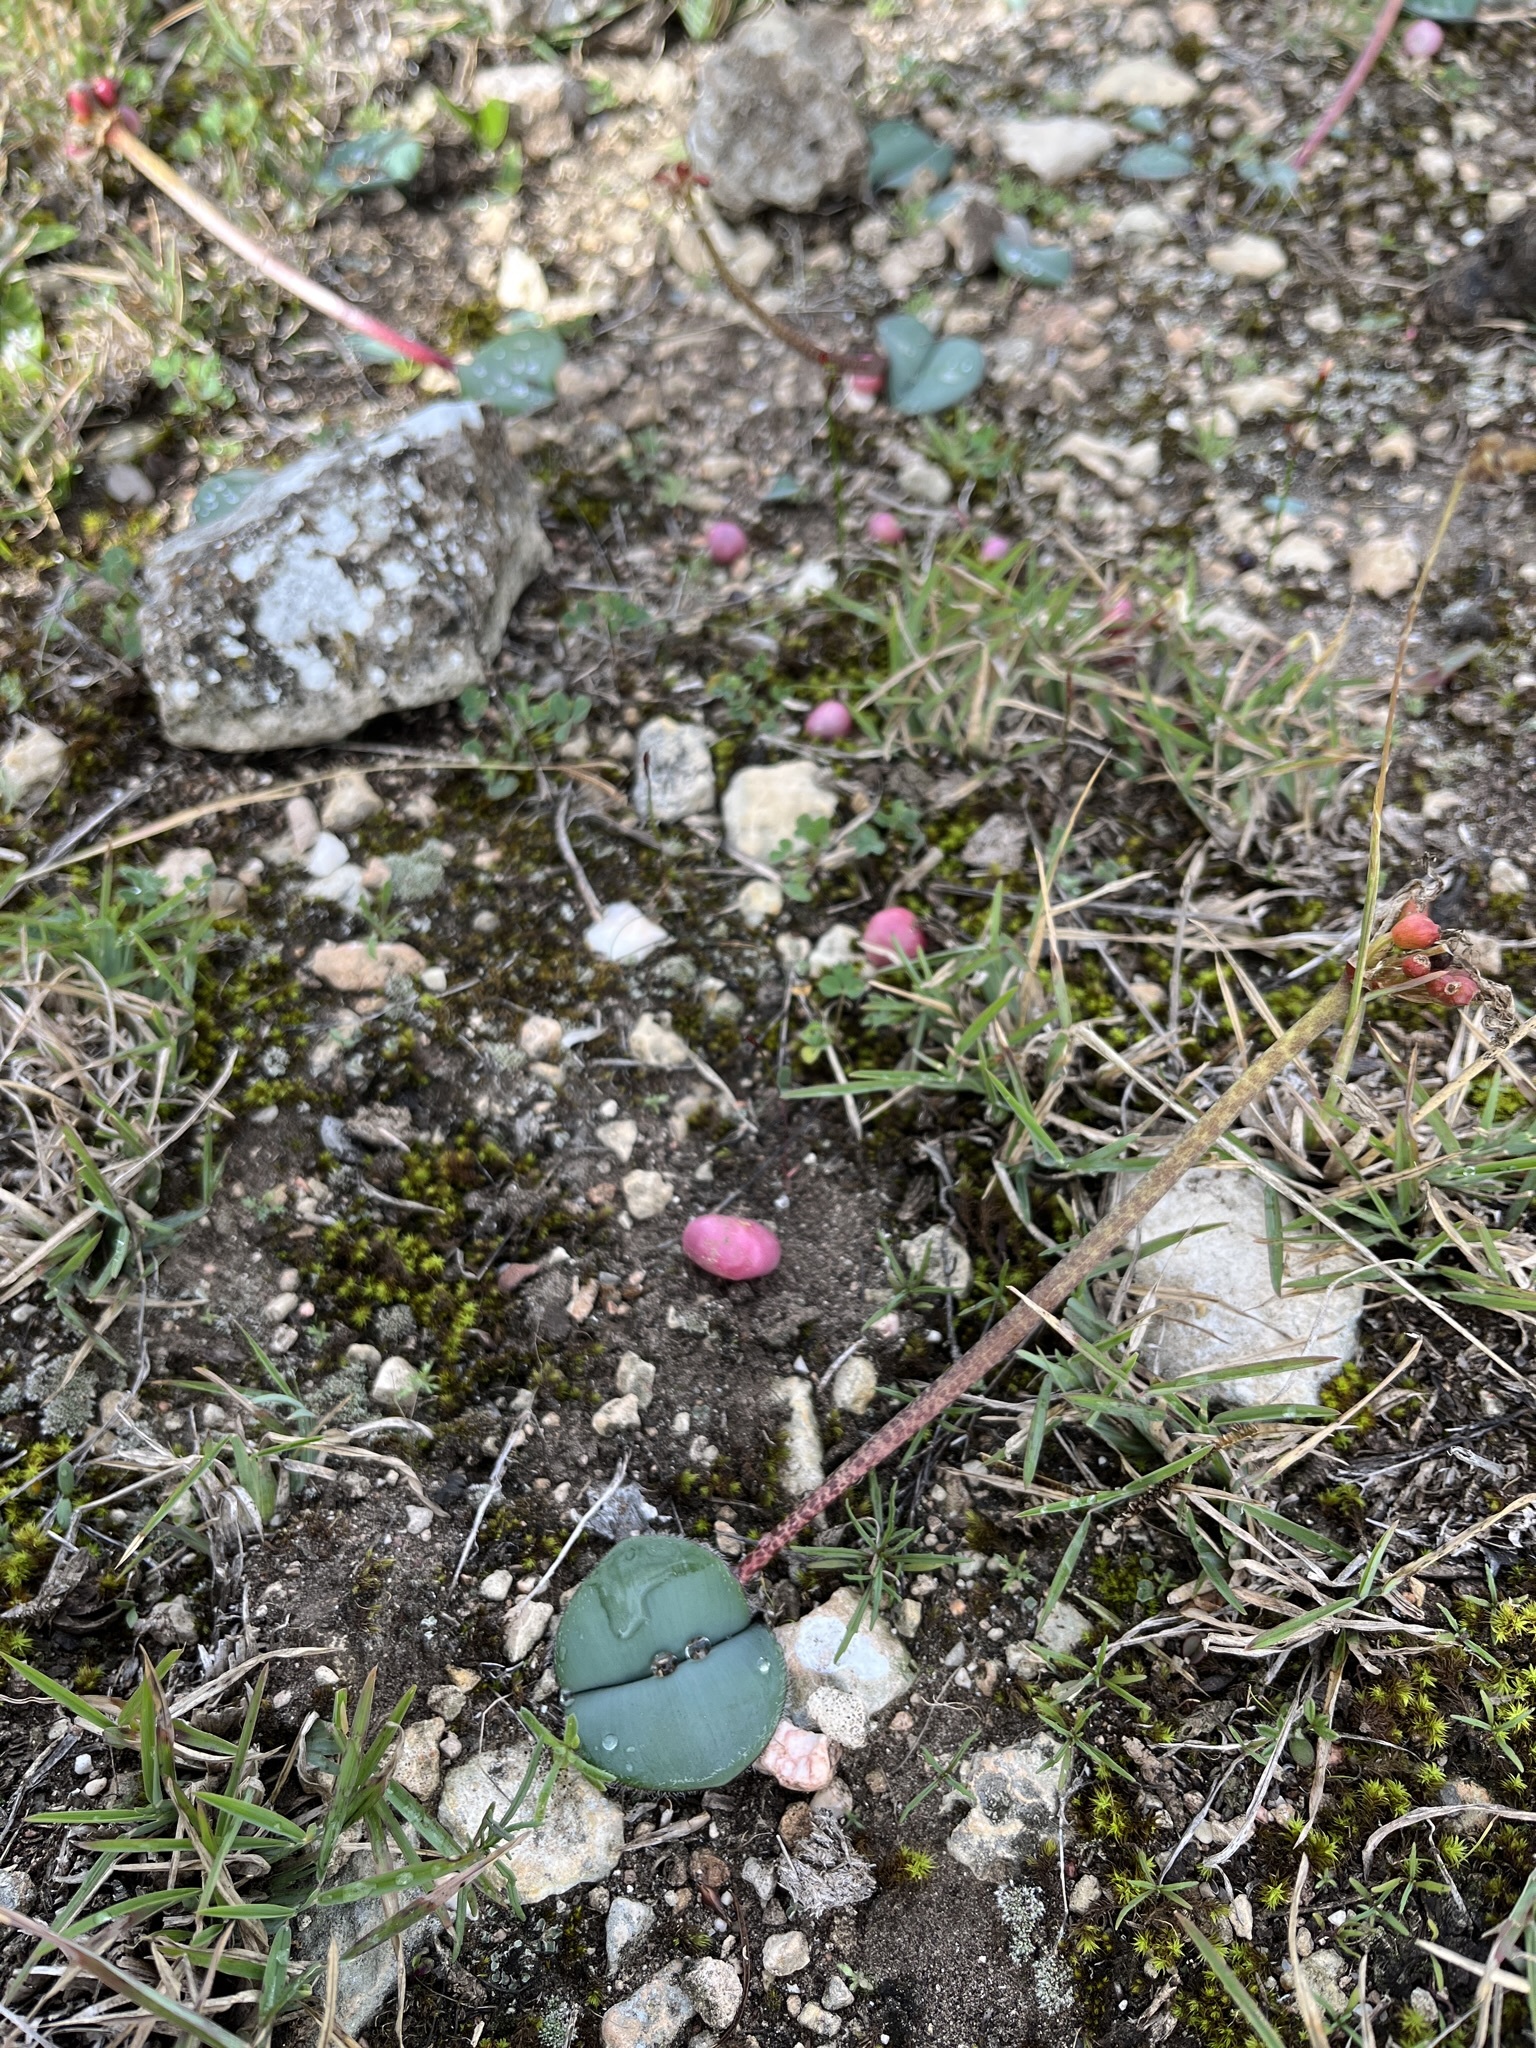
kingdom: Plantae
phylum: Tracheophyta
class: Liliopsida
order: Asparagales
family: Amaryllidaceae
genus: Haemanthus
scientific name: Haemanthus coccineus
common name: Cape-tulip
